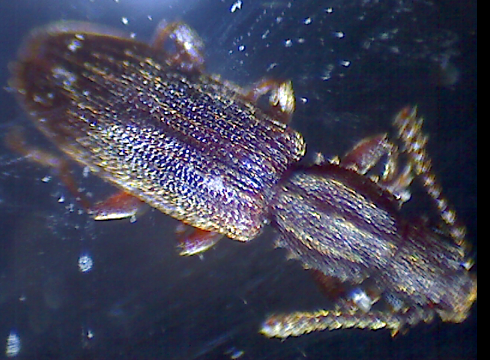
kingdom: Animalia
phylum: Arthropoda
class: Insecta
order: Coleoptera
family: Silvanidae
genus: Oryzaephilus
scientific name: Oryzaephilus surinamensis
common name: Sawtoothed grain beetle
